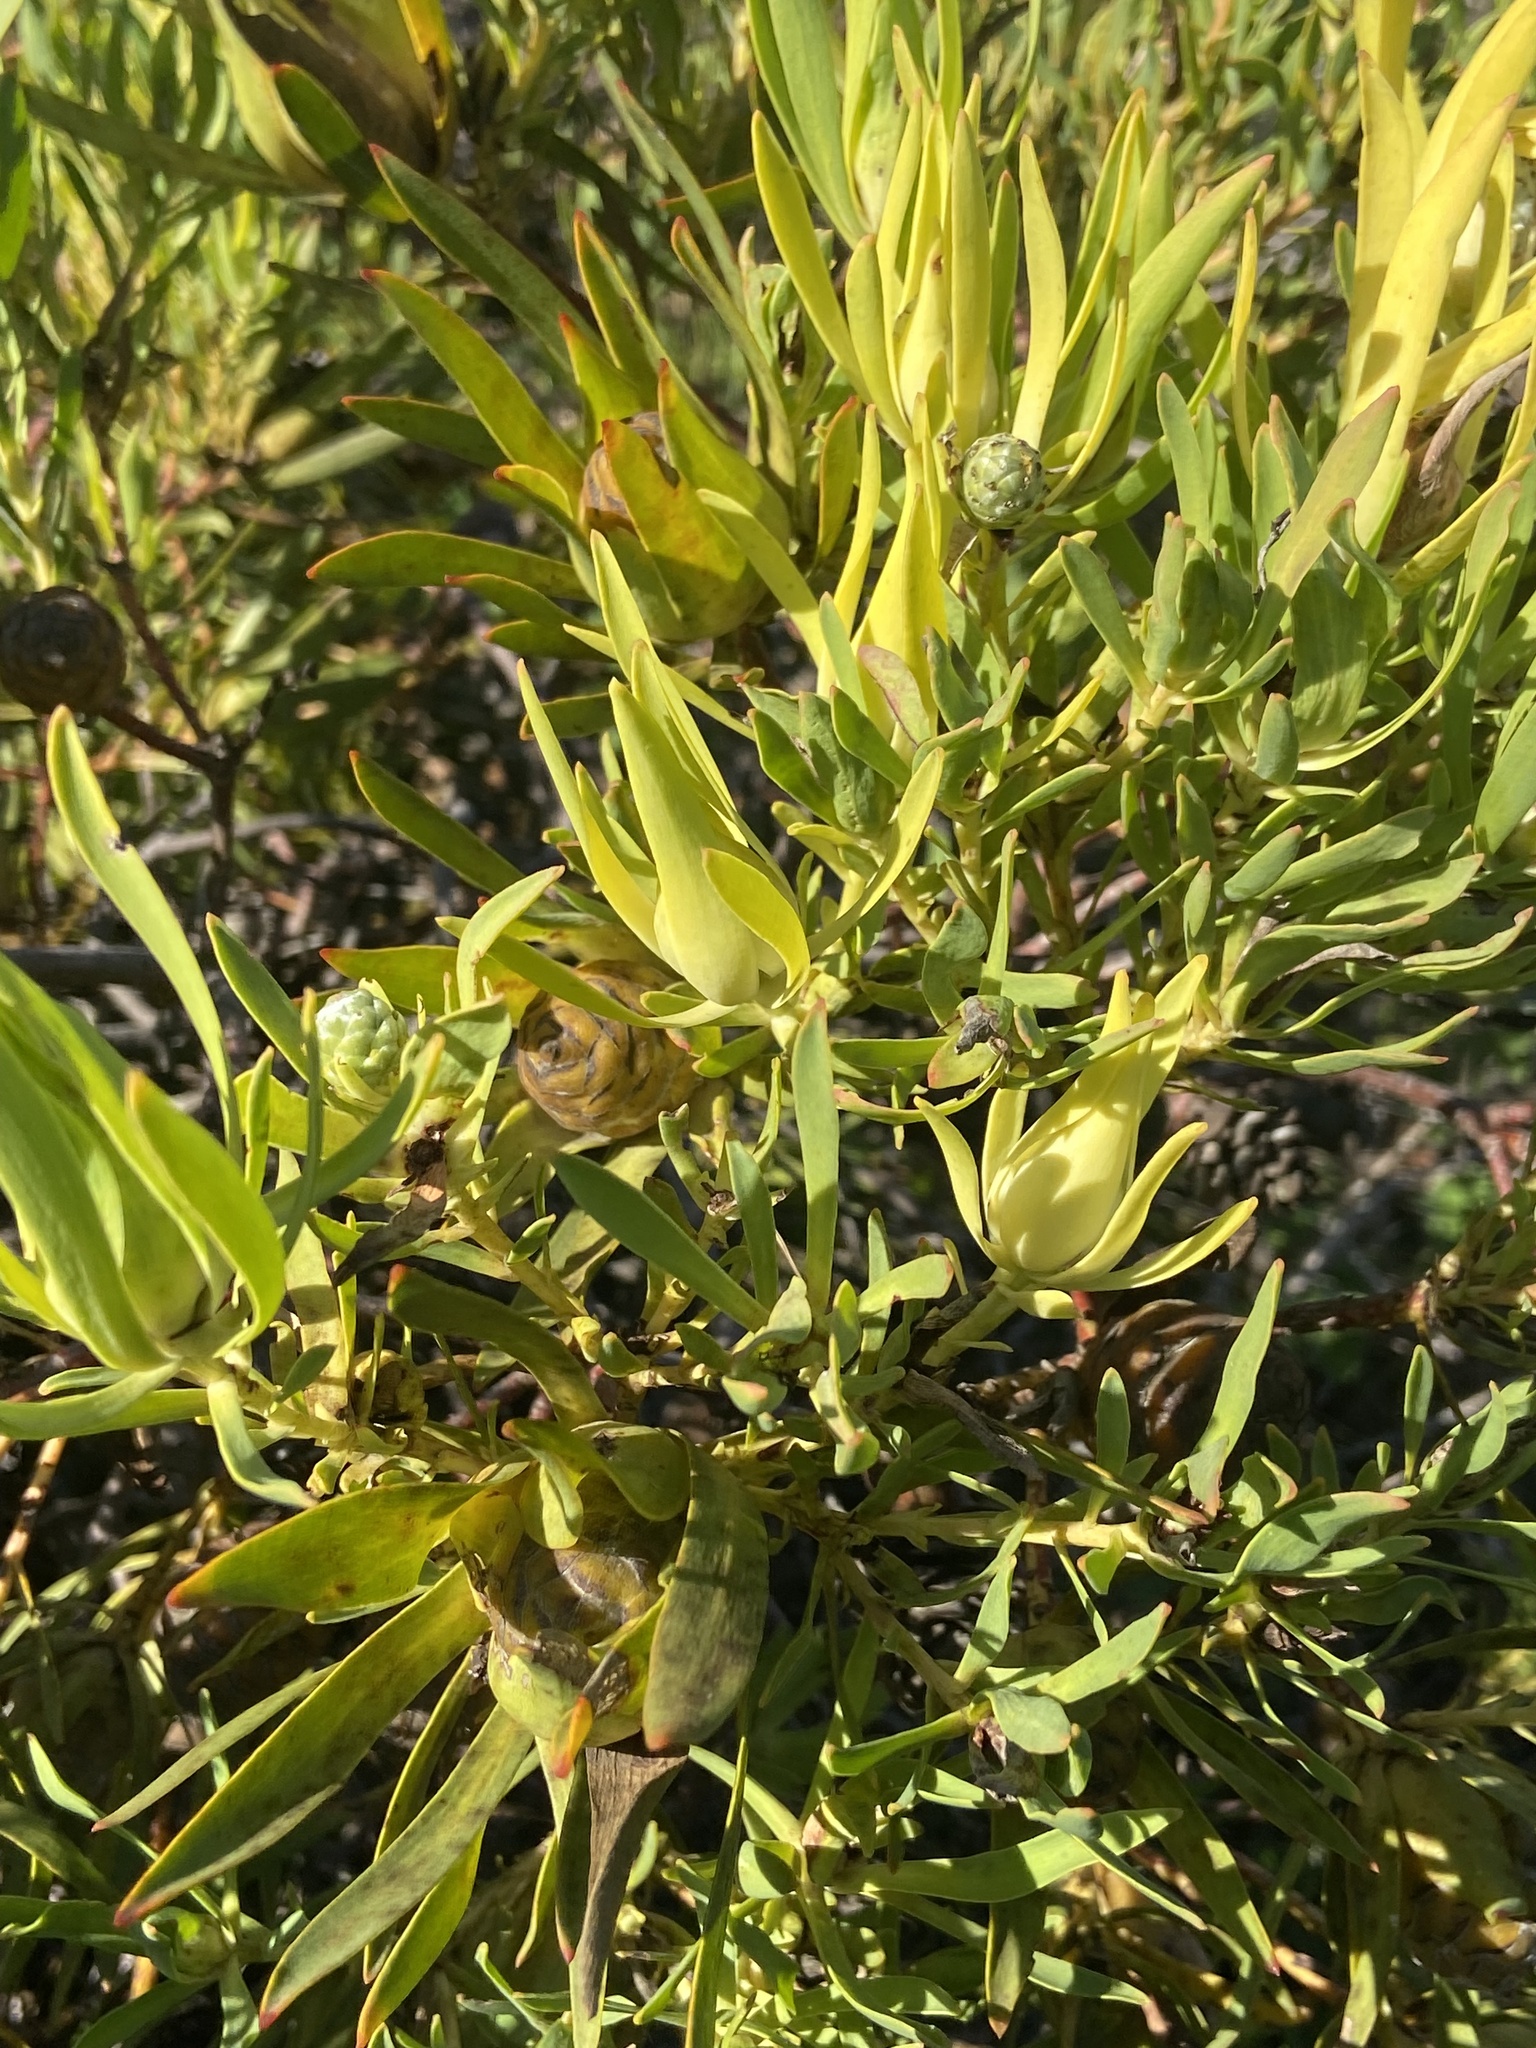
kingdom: Plantae
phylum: Tracheophyta
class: Magnoliopsida
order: Proteales
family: Proteaceae
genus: Leucadendron
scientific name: Leucadendron salignum
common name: Common sunshine conebush
